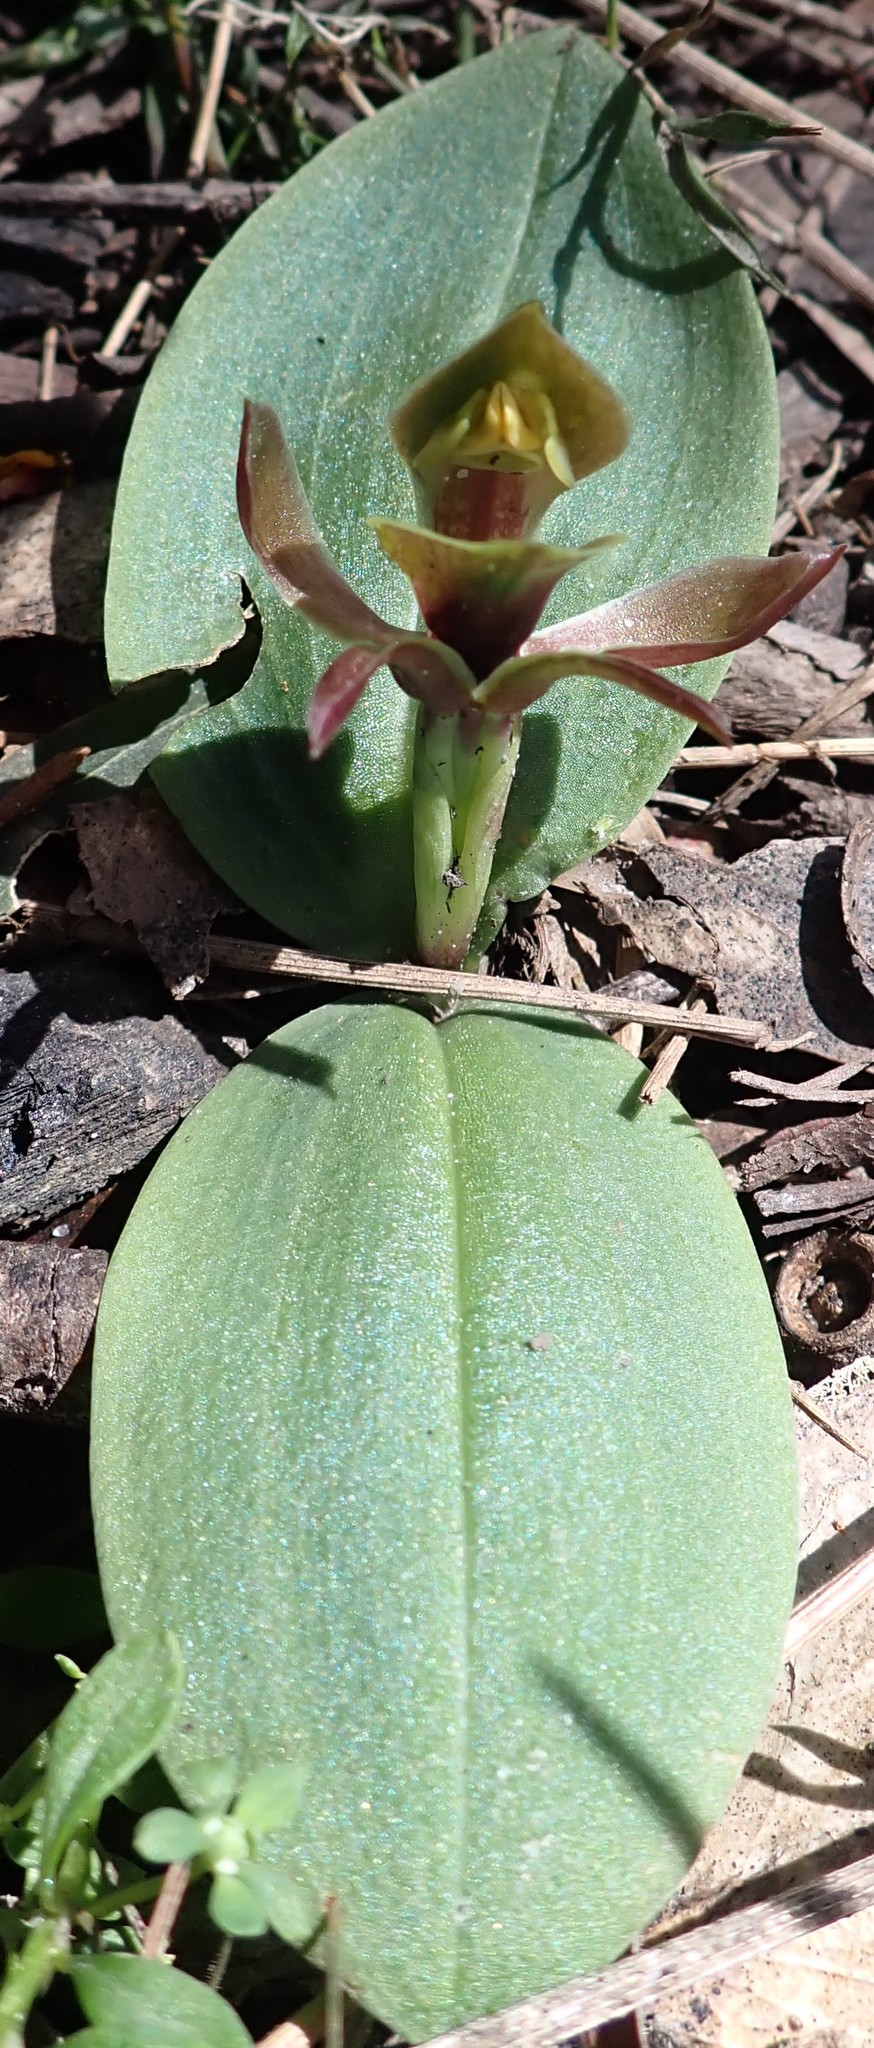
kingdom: Plantae
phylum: Tracheophyta
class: Liliopsida
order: Asparagales
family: Orchidaceae
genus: Chiloglottis
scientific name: Chiloglottis valida
